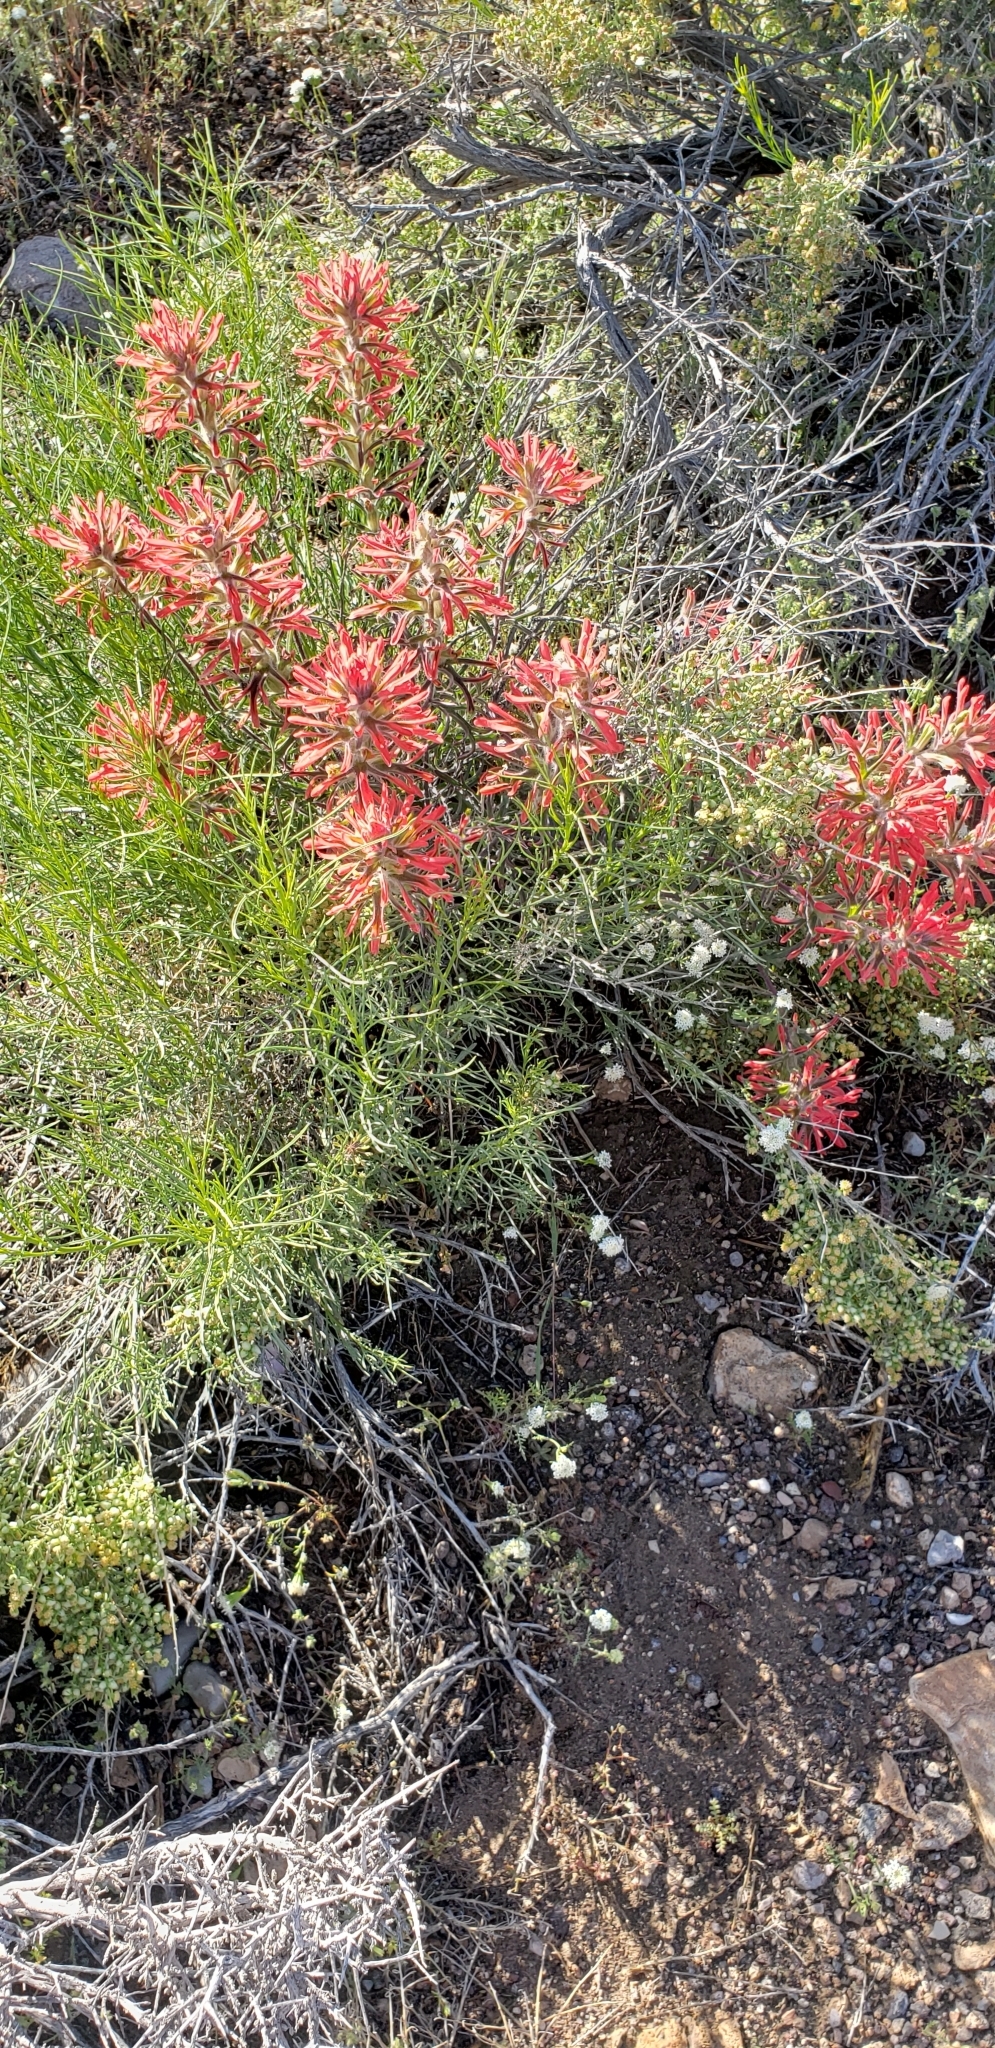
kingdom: Plantae
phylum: Tracheophyta
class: Magnoliopsida
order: Lamiales
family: Orobanchaceae
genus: Castilleja
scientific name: Castilleja chromosa
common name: Desert paintbrush
